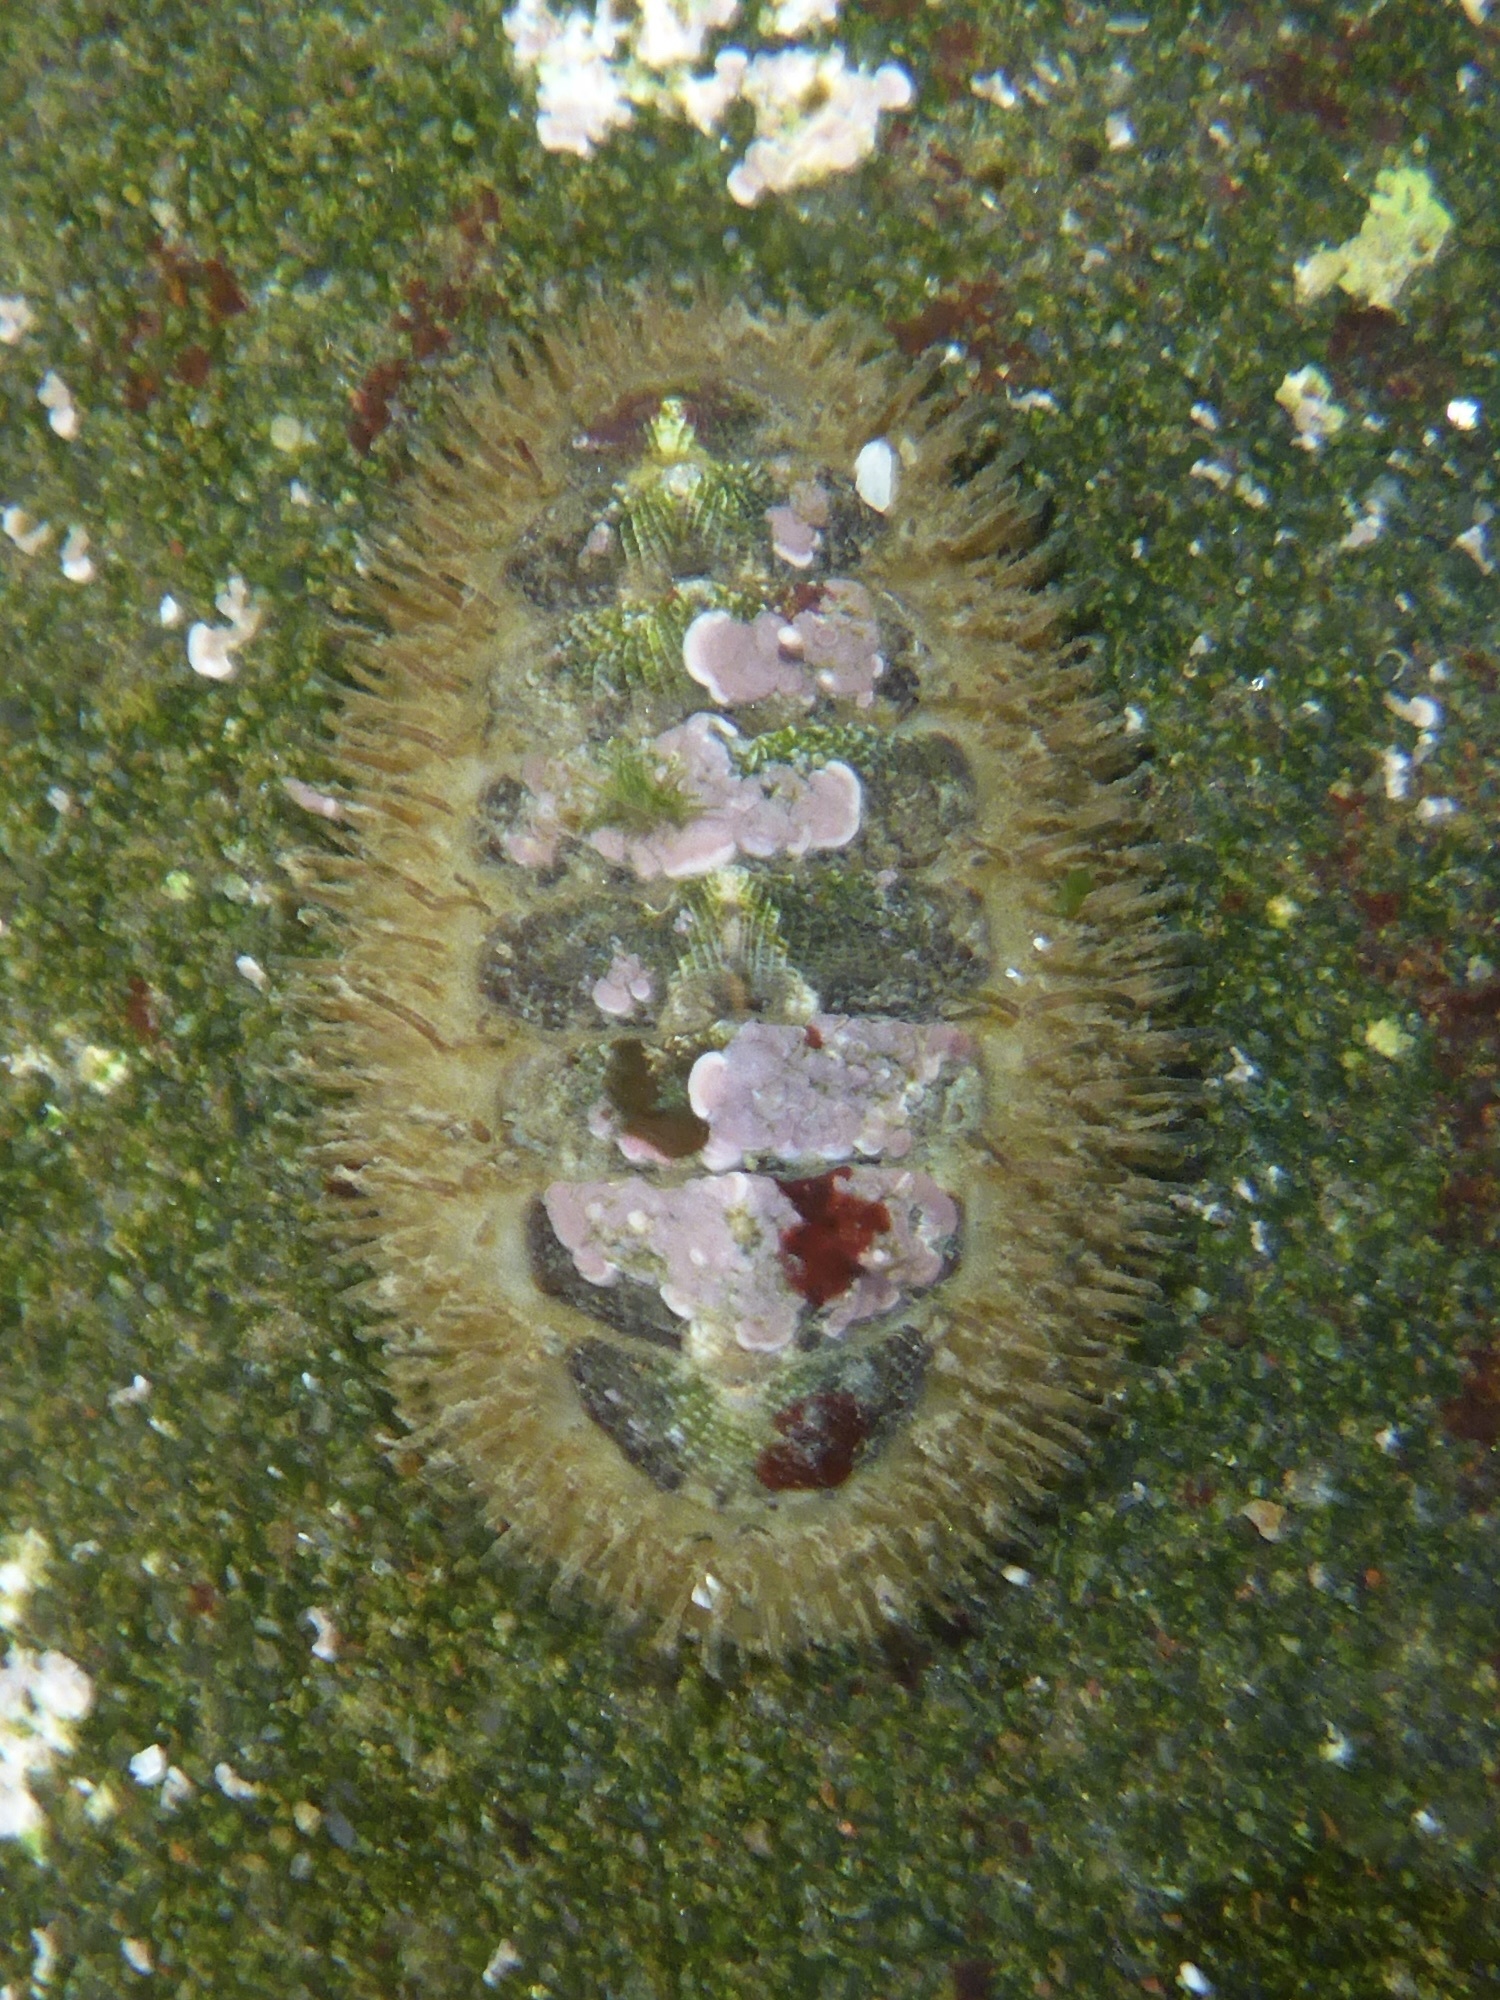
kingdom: Animalia
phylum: Mollusca
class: Polyplacophora
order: Chitonida
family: Mopaliidae
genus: Mopalia
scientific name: Mopalia muscosa
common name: Mossy chiton
